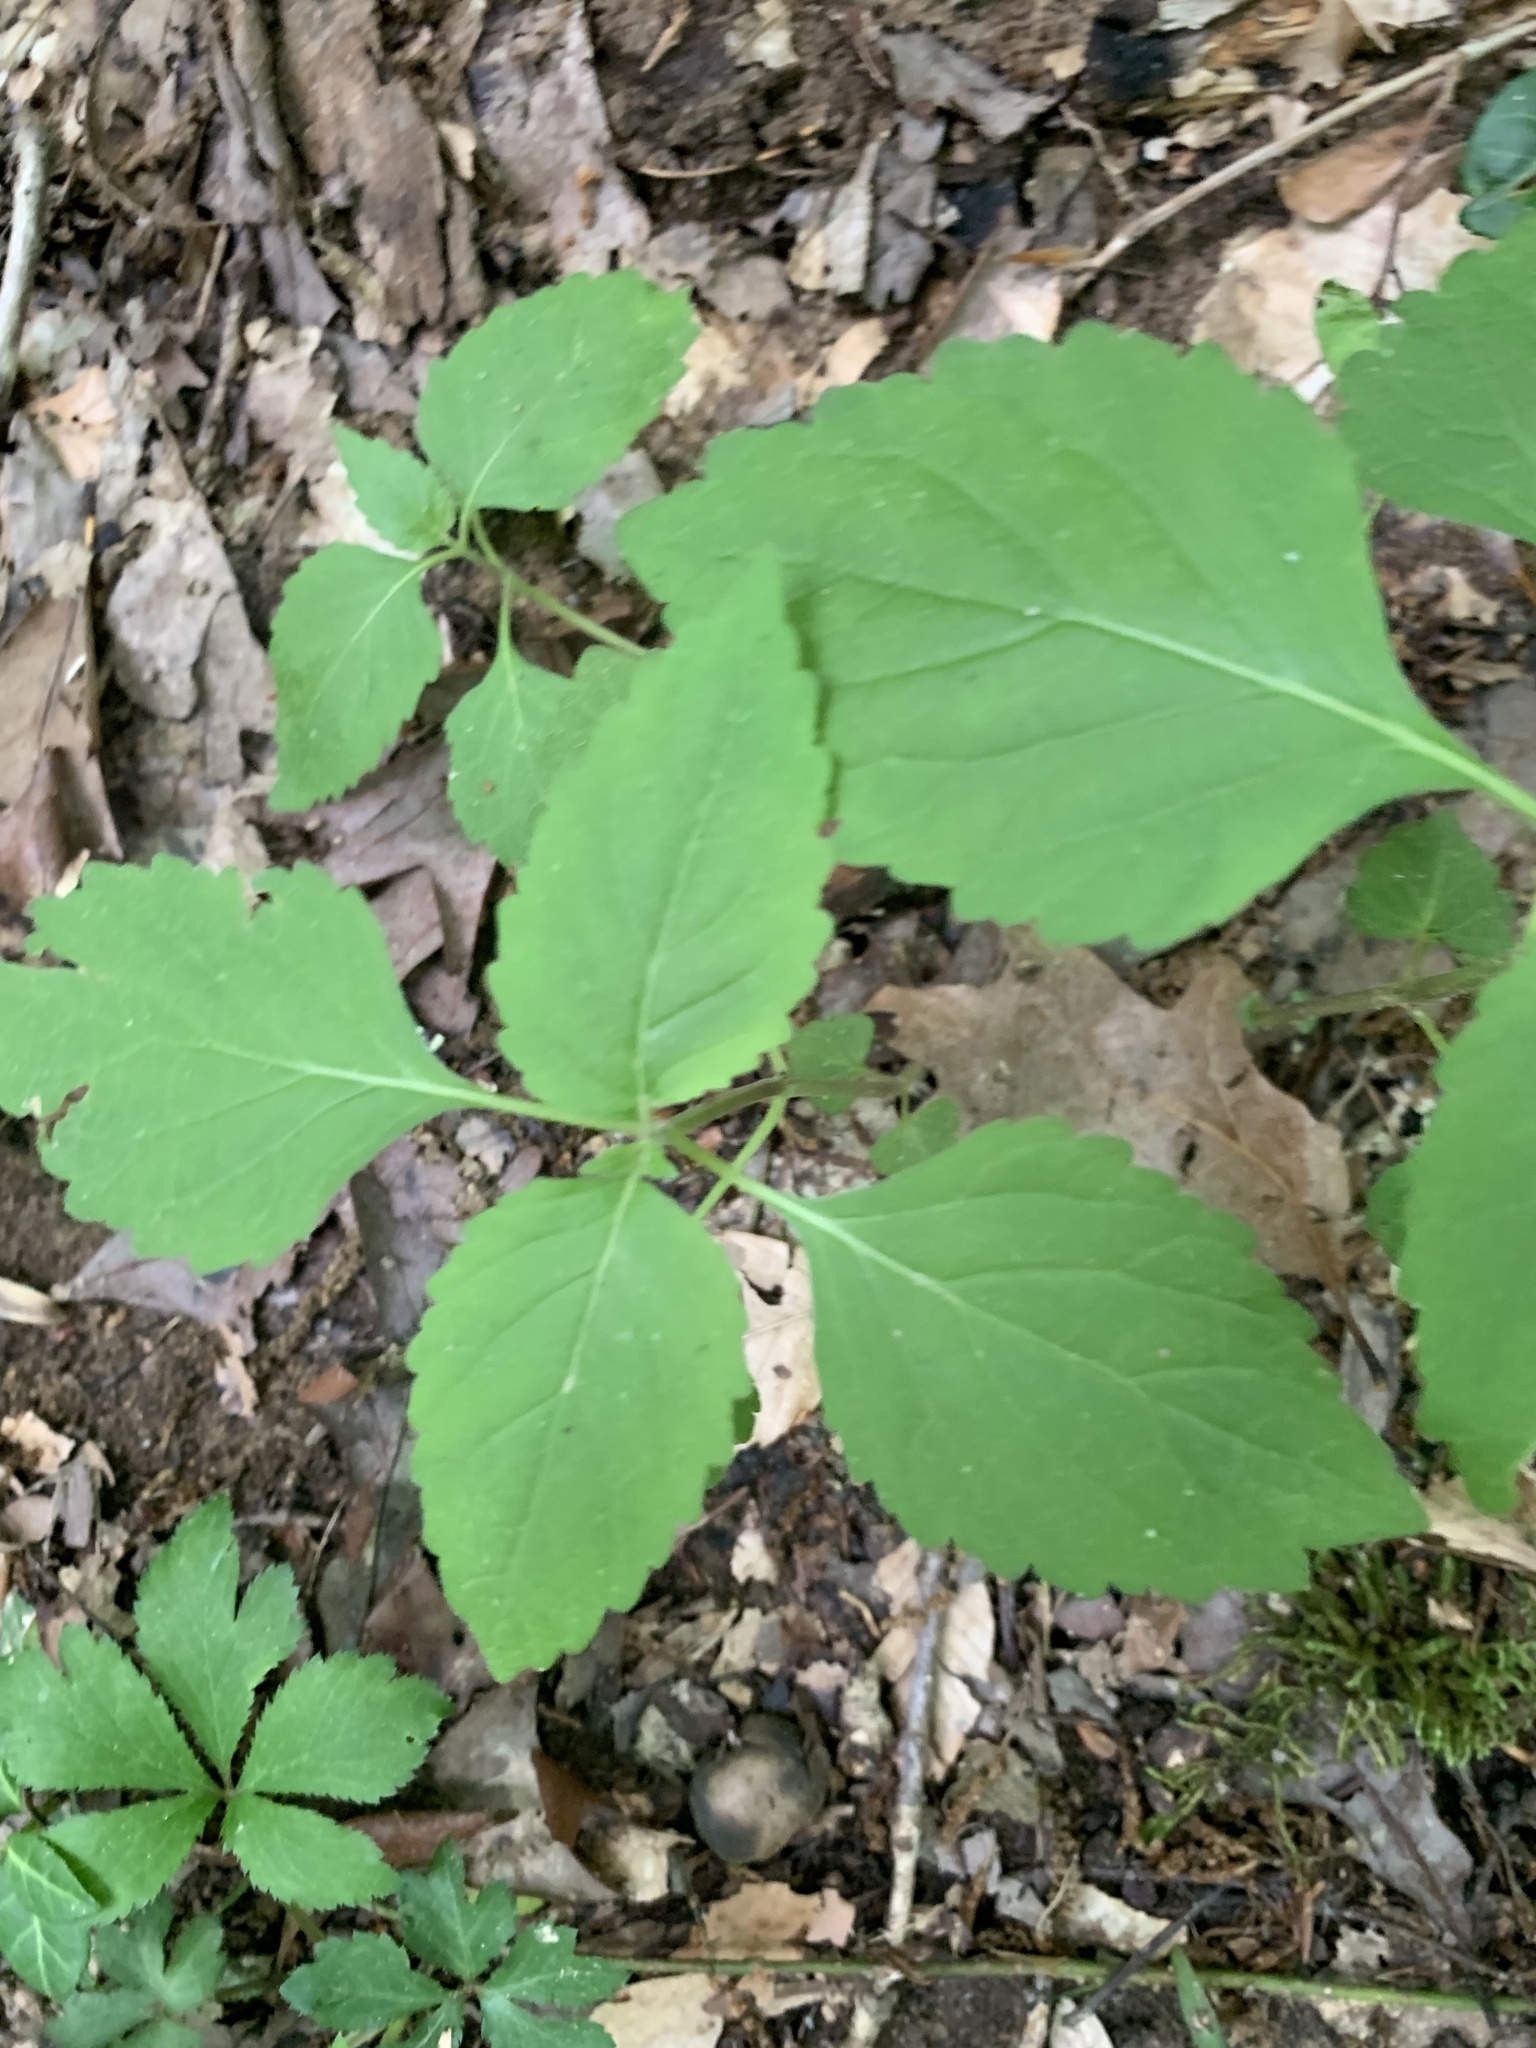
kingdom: Plantae
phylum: Tracheophyta
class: Magnoliopsida
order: Lamiales
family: Phrymaceae
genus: Phryma
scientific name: Phryma leptostachya
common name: American lopseed
